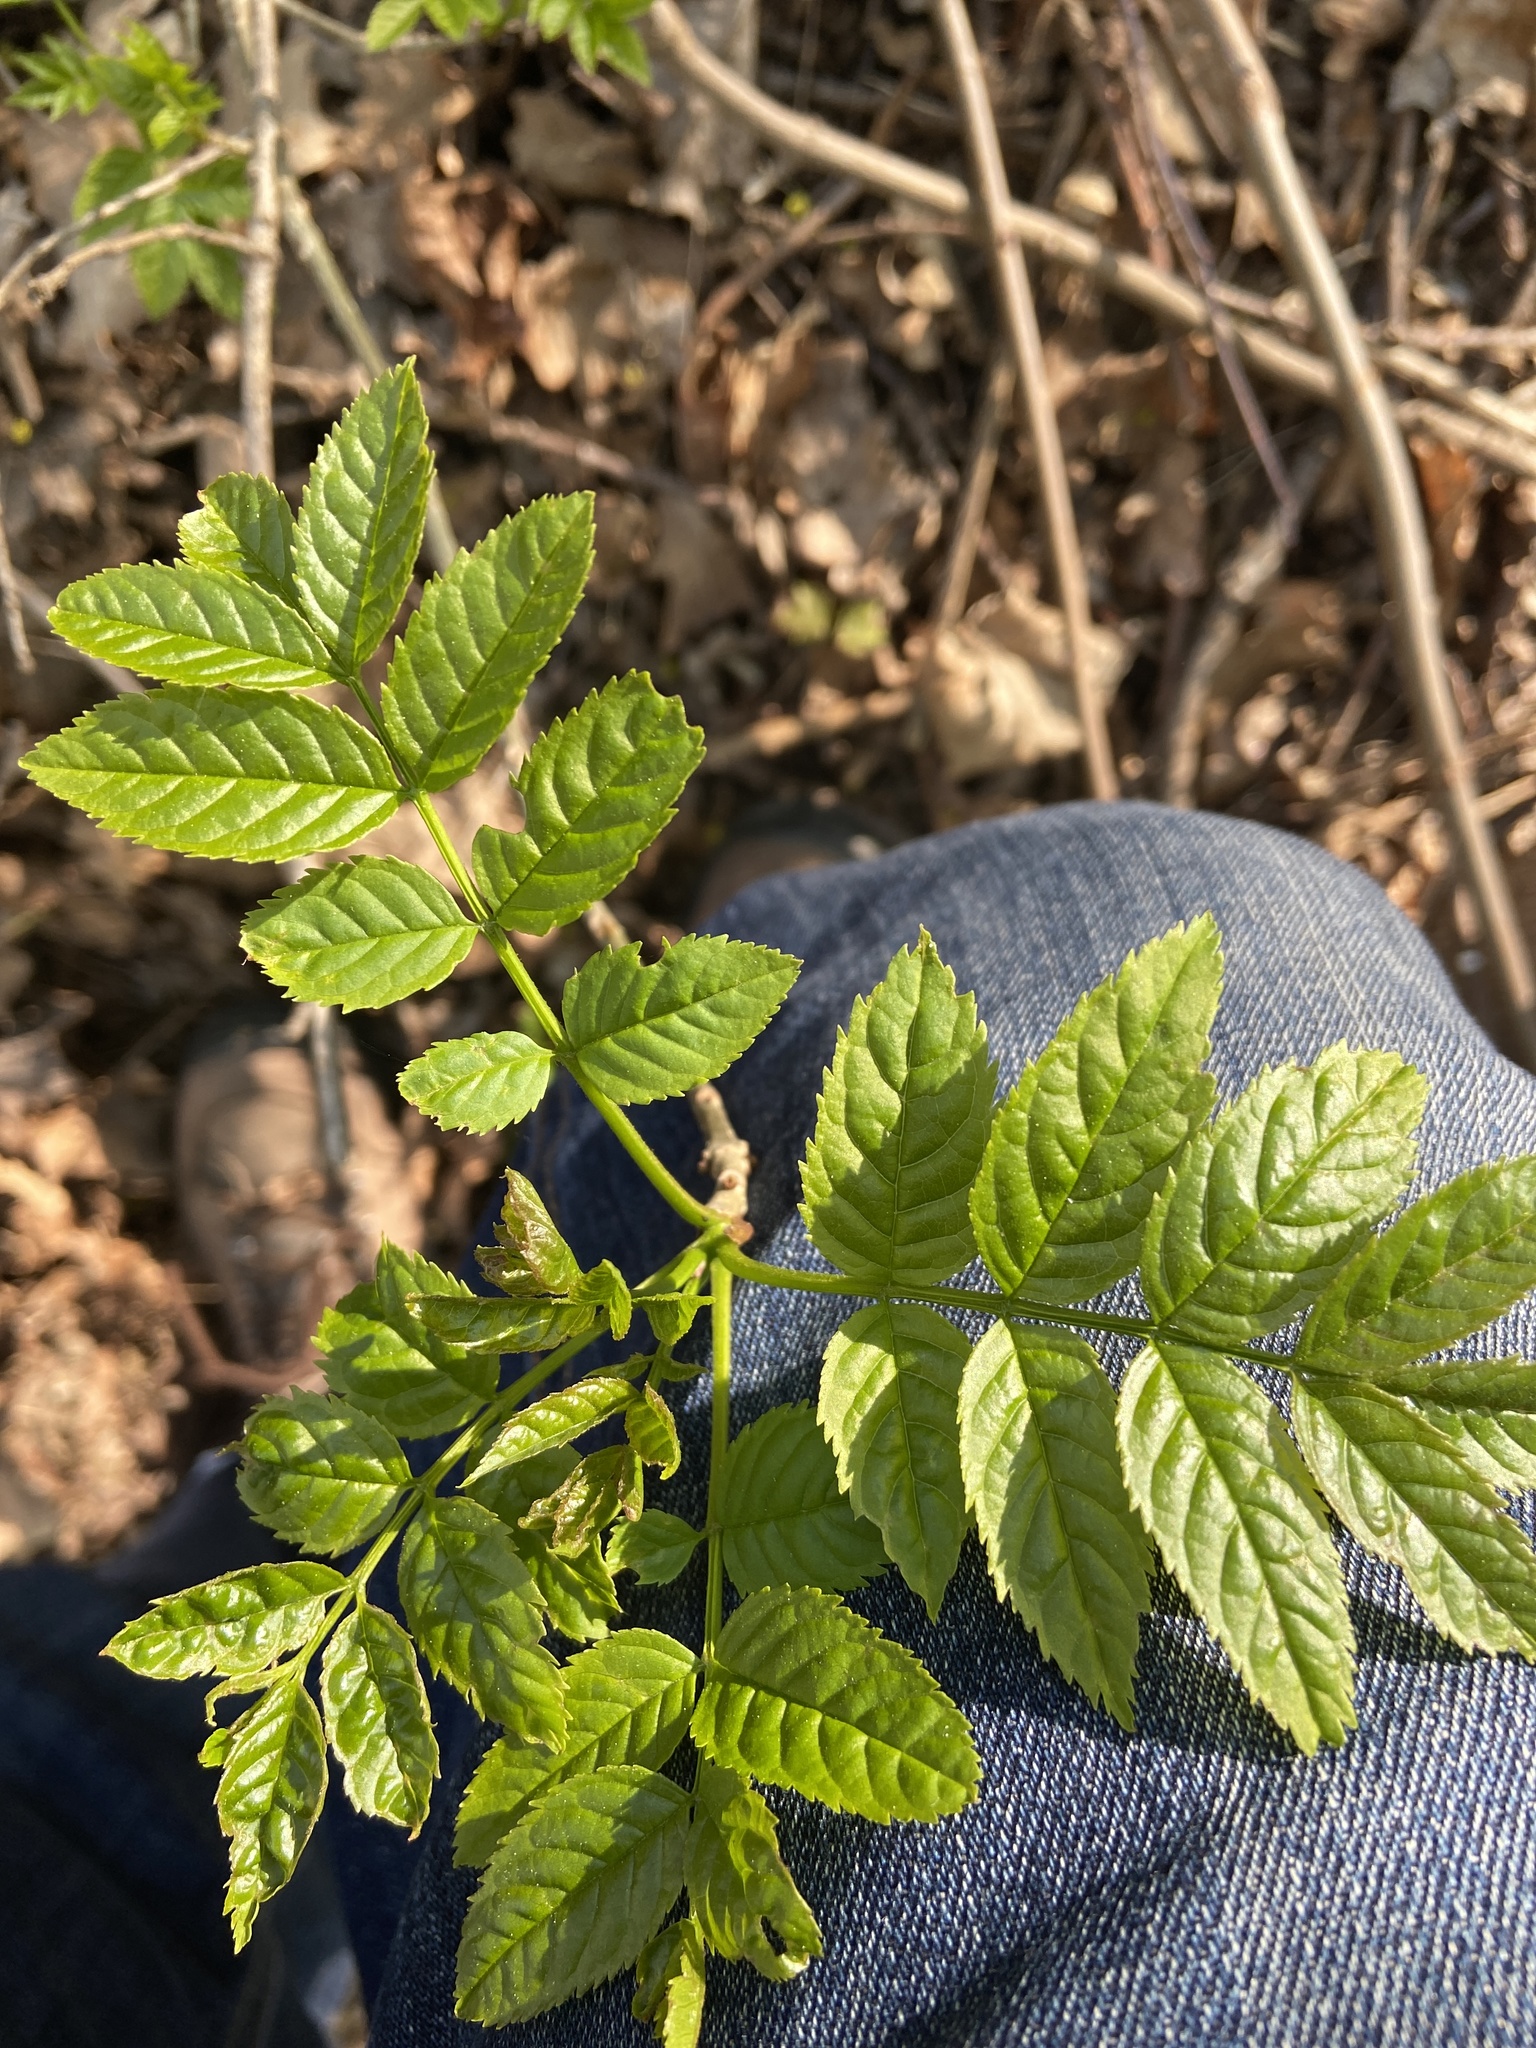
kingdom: Plantae
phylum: Tracheophyta
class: Magnoliopsida
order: Lamiales
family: Oleaceae
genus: Fraxinus
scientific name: Fraxinus excelsior
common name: European ash
